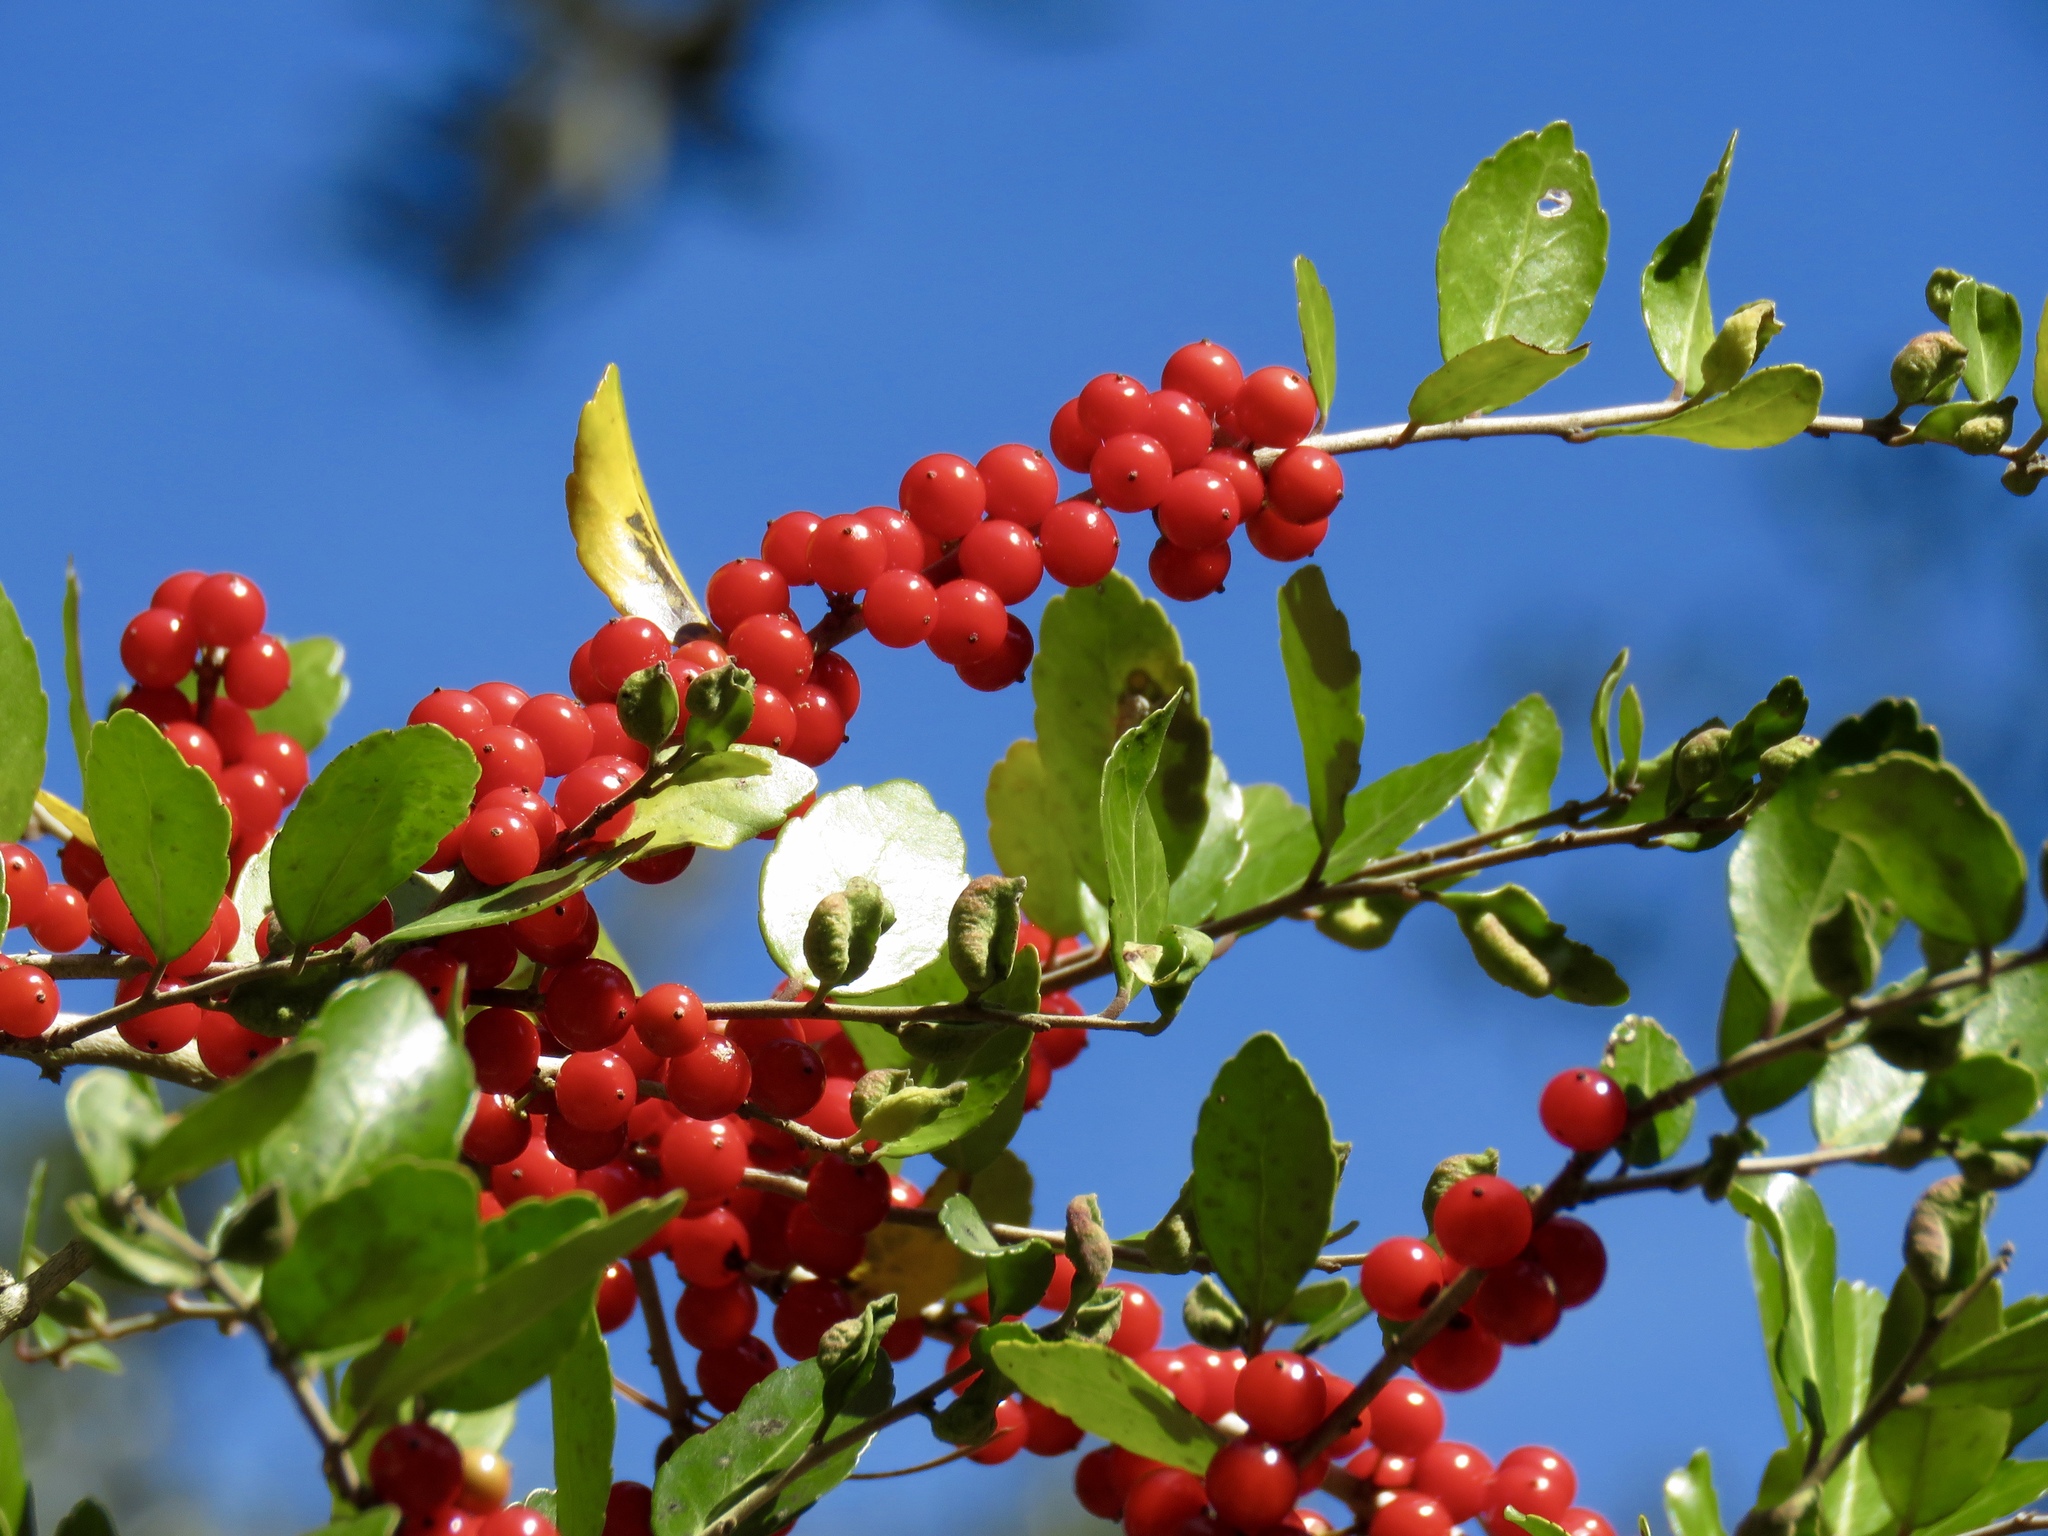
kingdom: Plantae
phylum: Tracheophyta
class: Magnoliopsida
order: Aquifoliales
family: Aquifoliaceae
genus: Ilex
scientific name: Ilex vomitoria
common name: Yaupon holly
